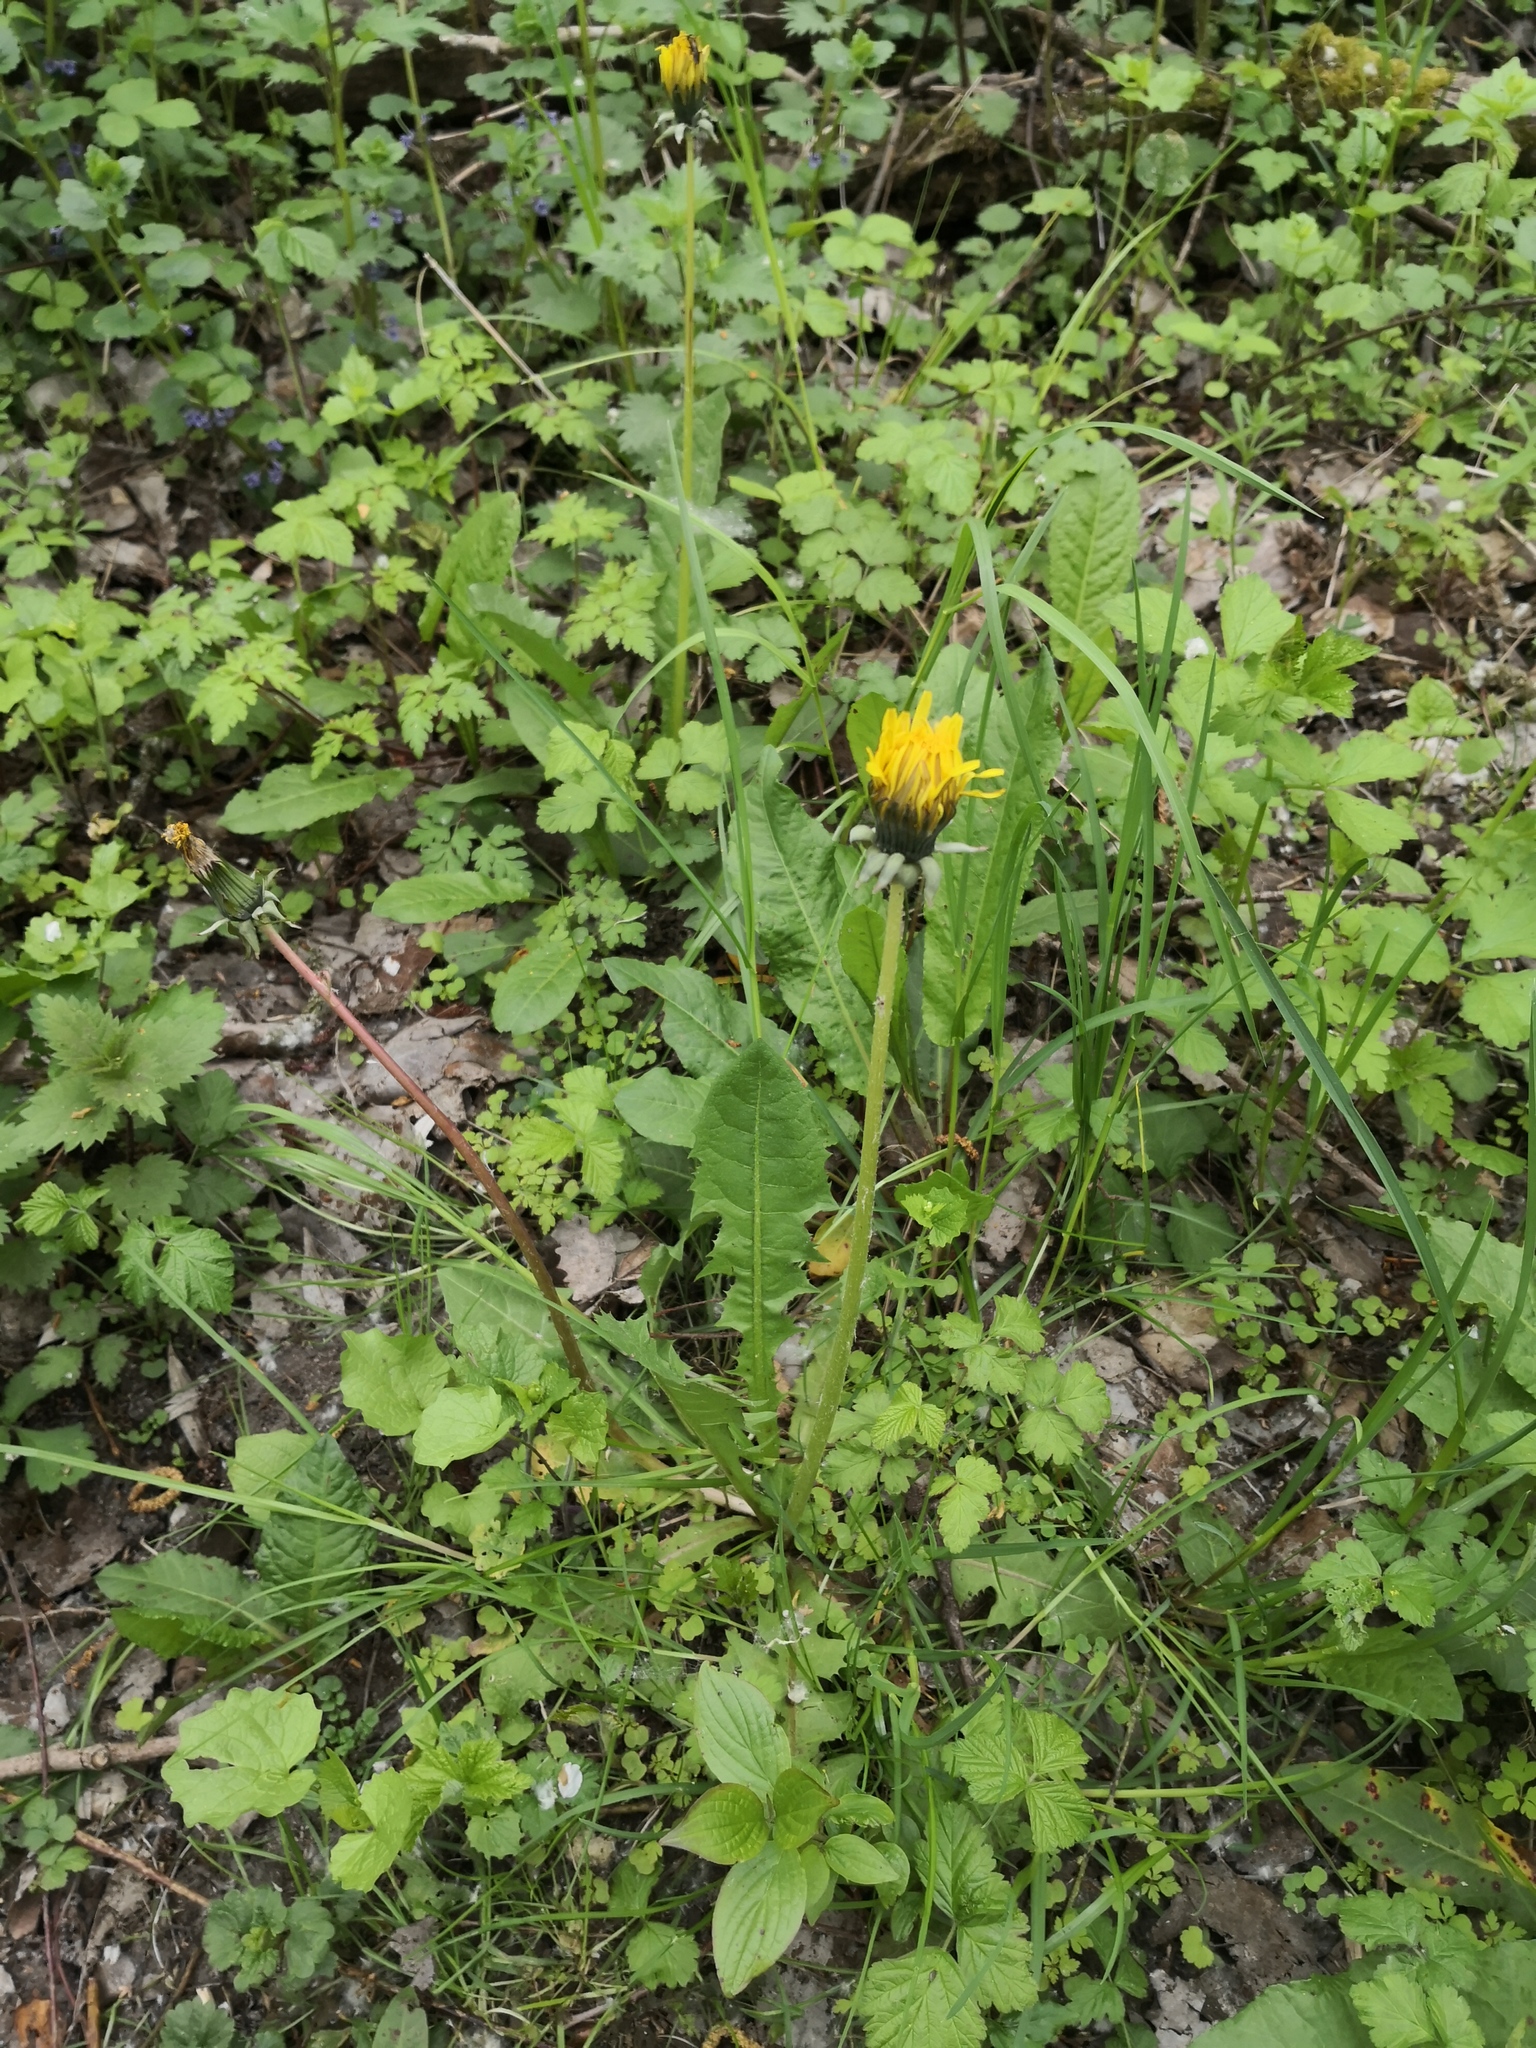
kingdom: Plantae
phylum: Tracheophyta
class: Magnoliopsida
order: Asterales
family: Asteraceae
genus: Taraxacum
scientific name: Taraxacum officinale
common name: Common dandelion
